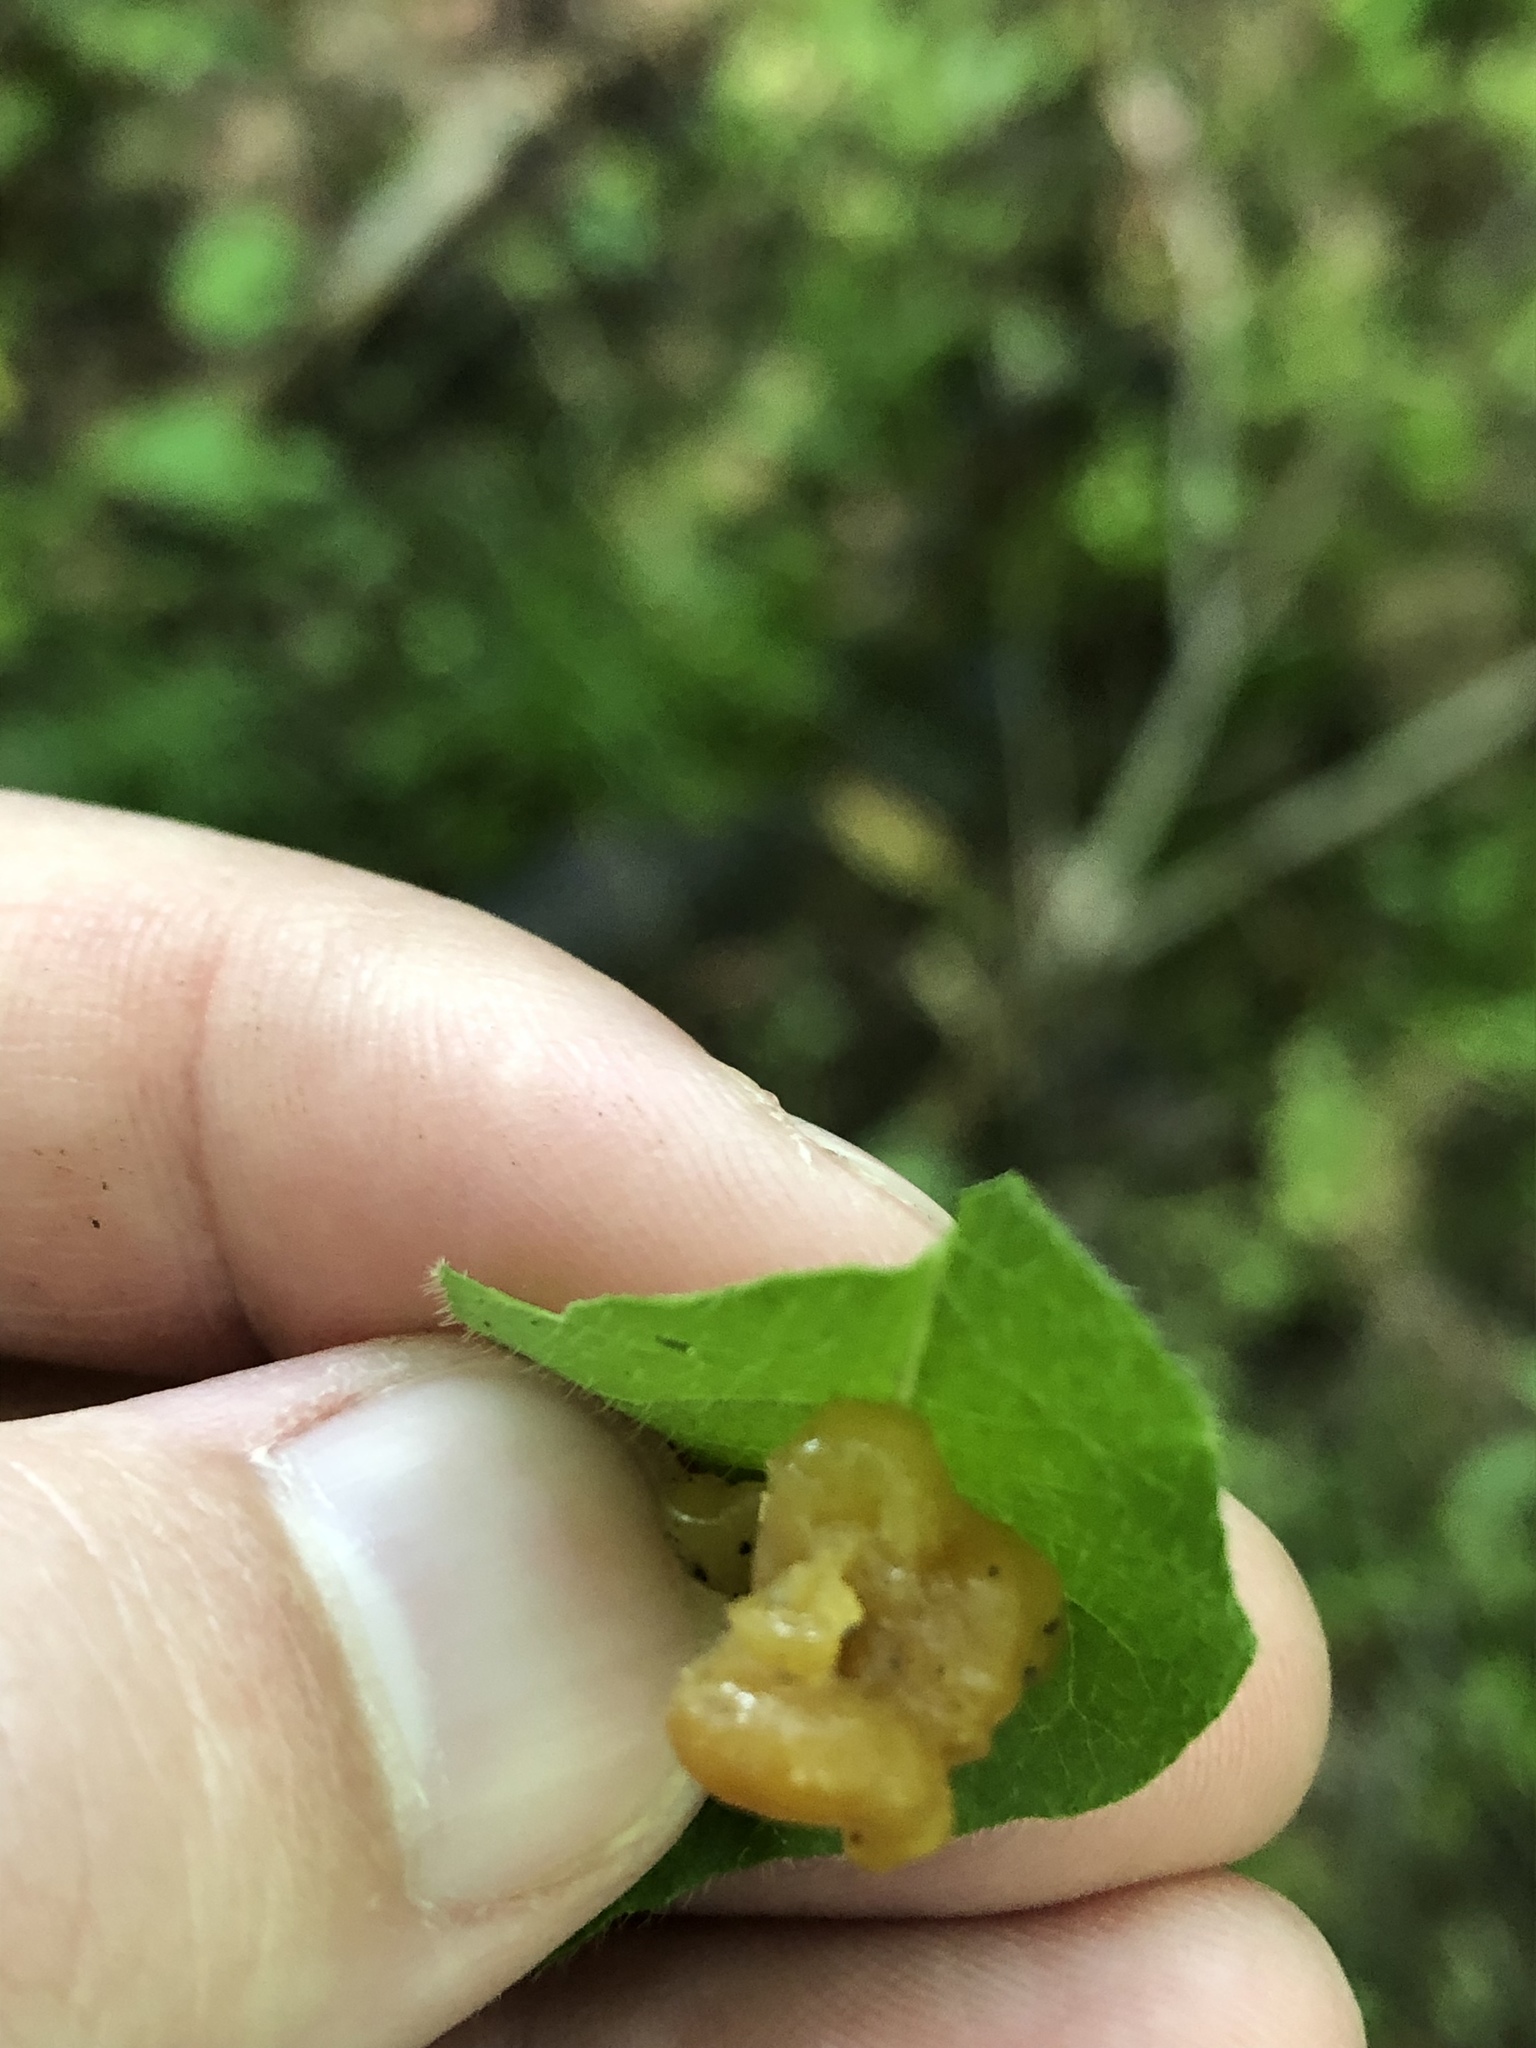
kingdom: Fungi
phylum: Basidiomycota
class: Tremellomycetes
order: Tremellales
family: Tremellaceae
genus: Tremella
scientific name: Tremella mesenterica
